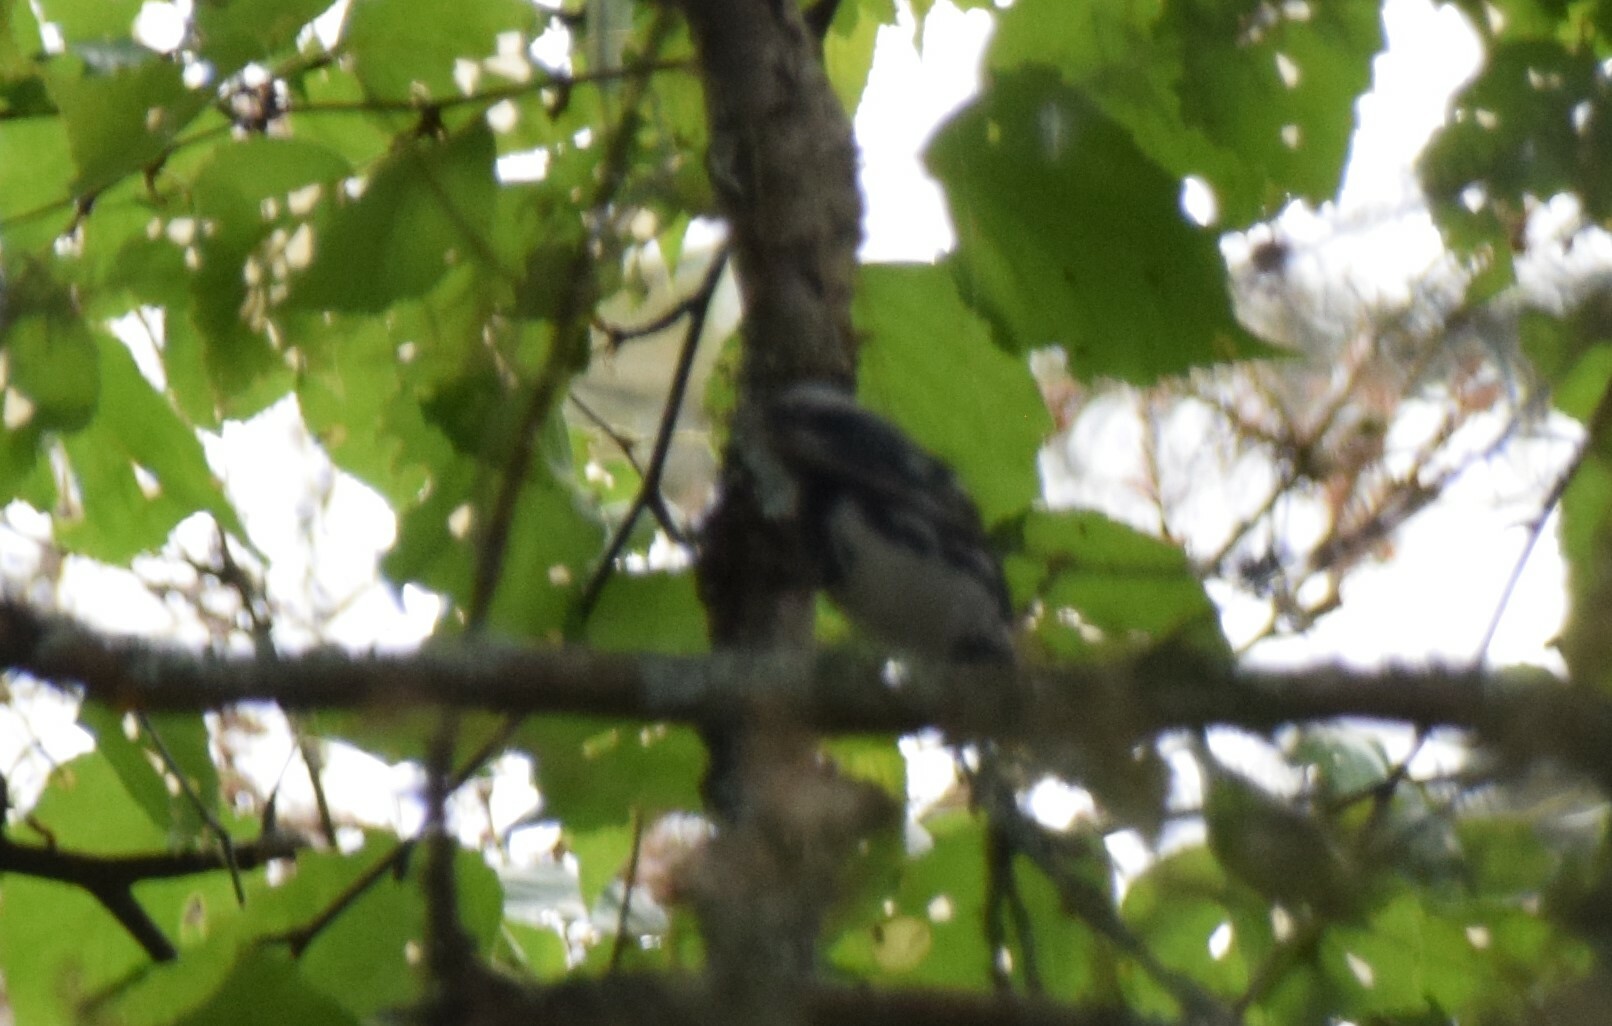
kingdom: Animalia
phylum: Chordata
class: Aves
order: Passeriformes
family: Parulidae
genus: Mniotilta
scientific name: Mniotilta varia
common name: Black-and-white warbler
